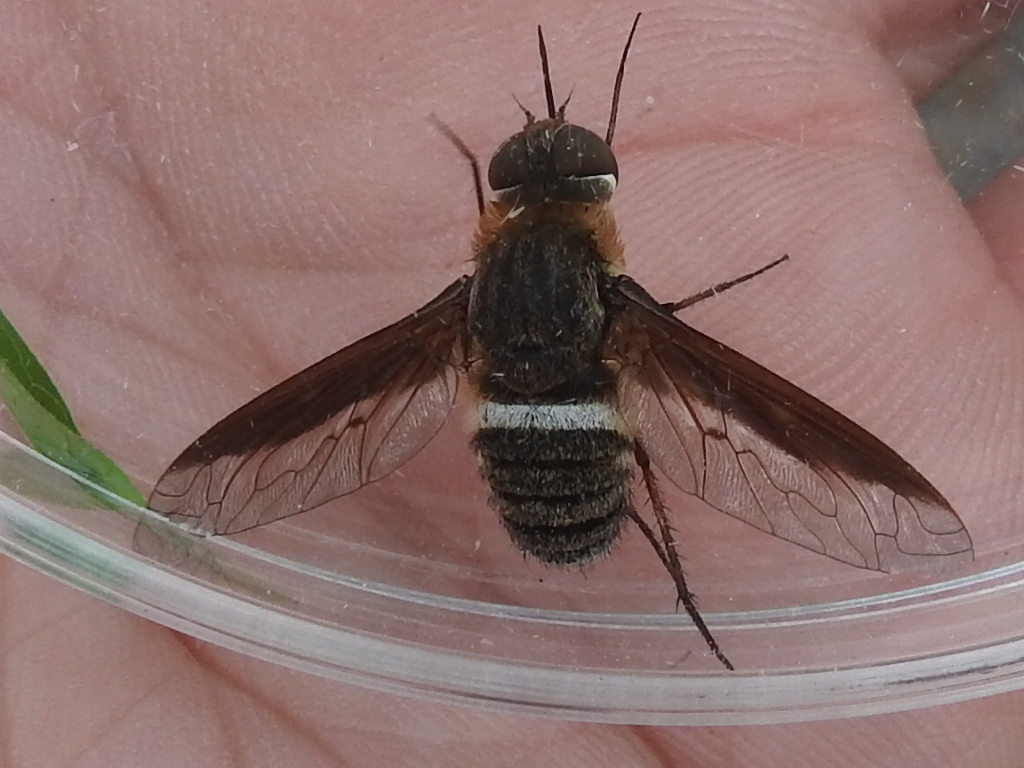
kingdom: Animalia
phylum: Arthropoda
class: Insecta
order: Diptera
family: Bombyliidae
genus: Exoprosopa
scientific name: Exoprosopa rostrifera
